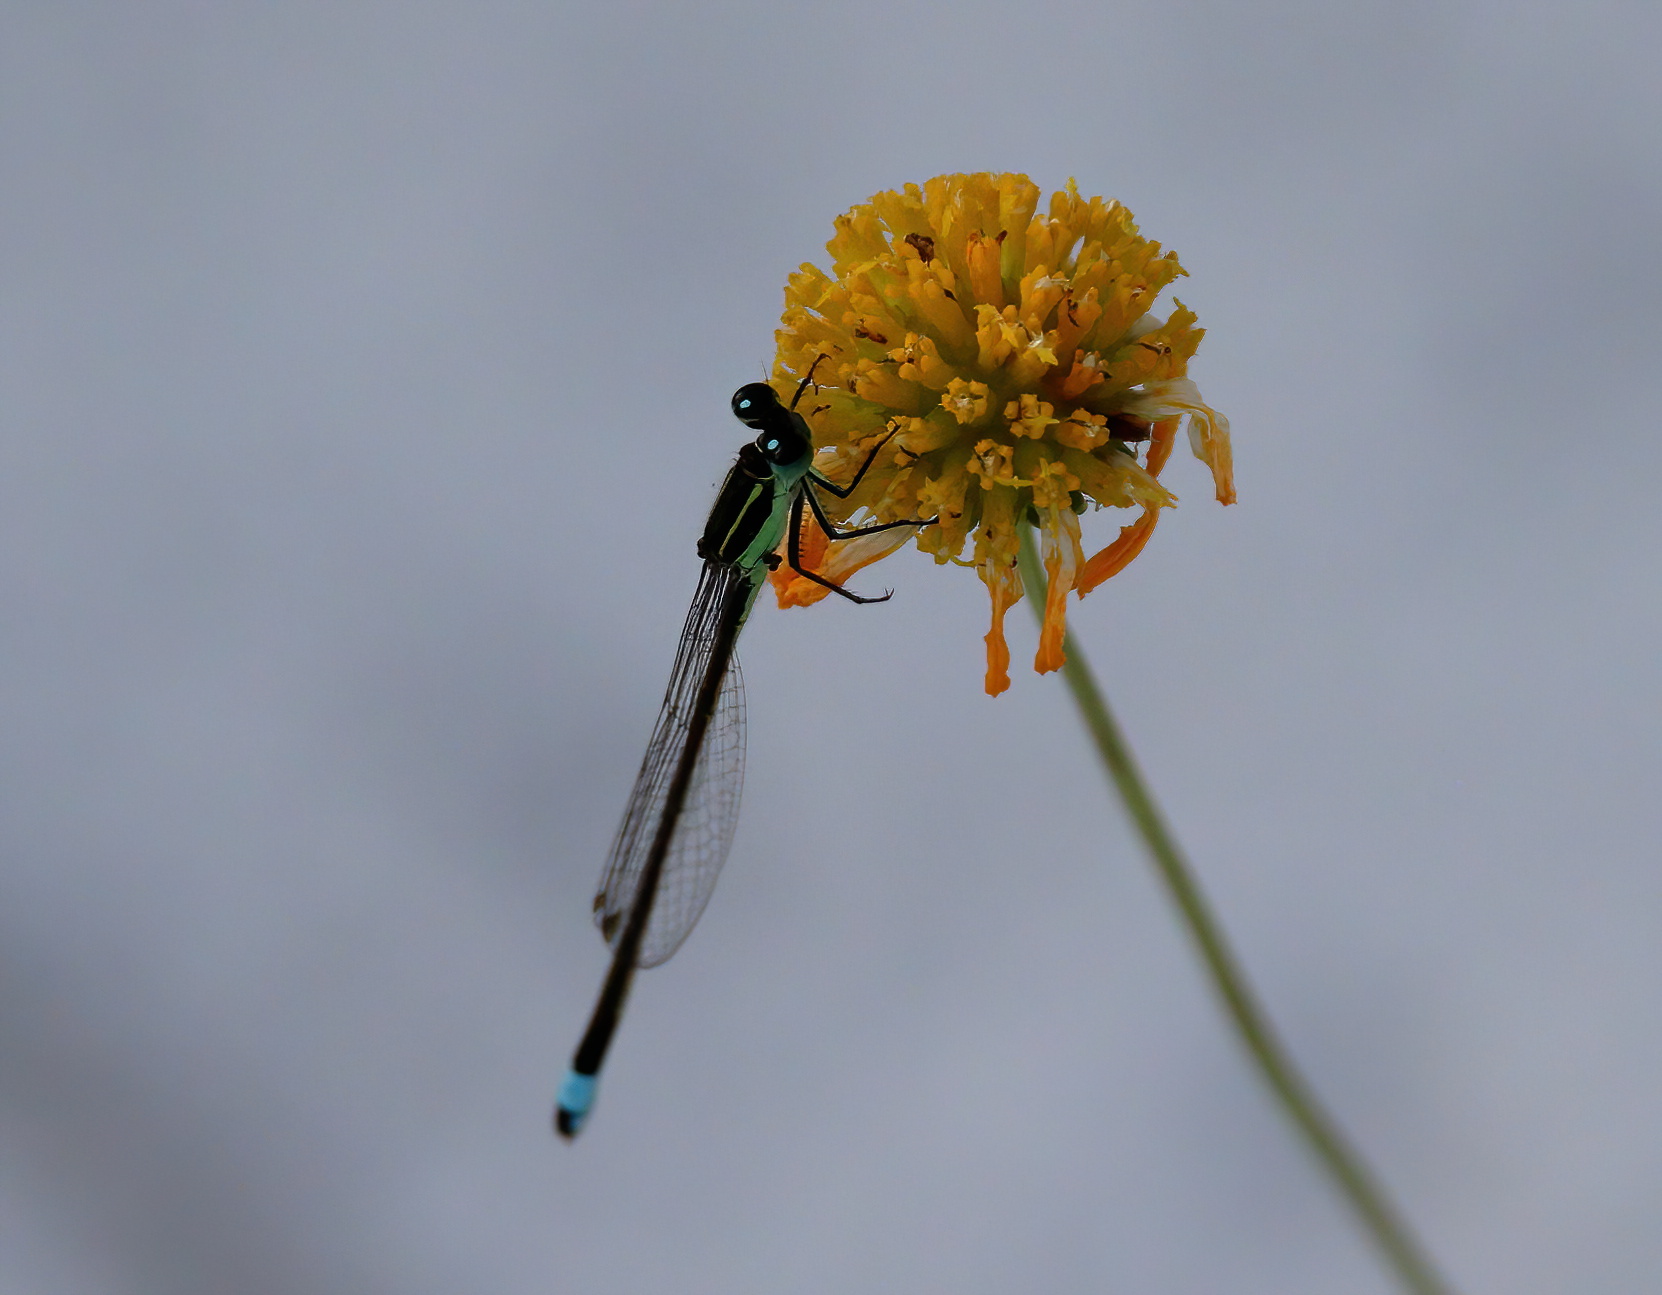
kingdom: Animalia
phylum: Arthropoda
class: Insecta
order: Odonata
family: Coenagrionidae
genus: Ischnura
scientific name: Ischnura ramburii
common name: Rambur's forktail
